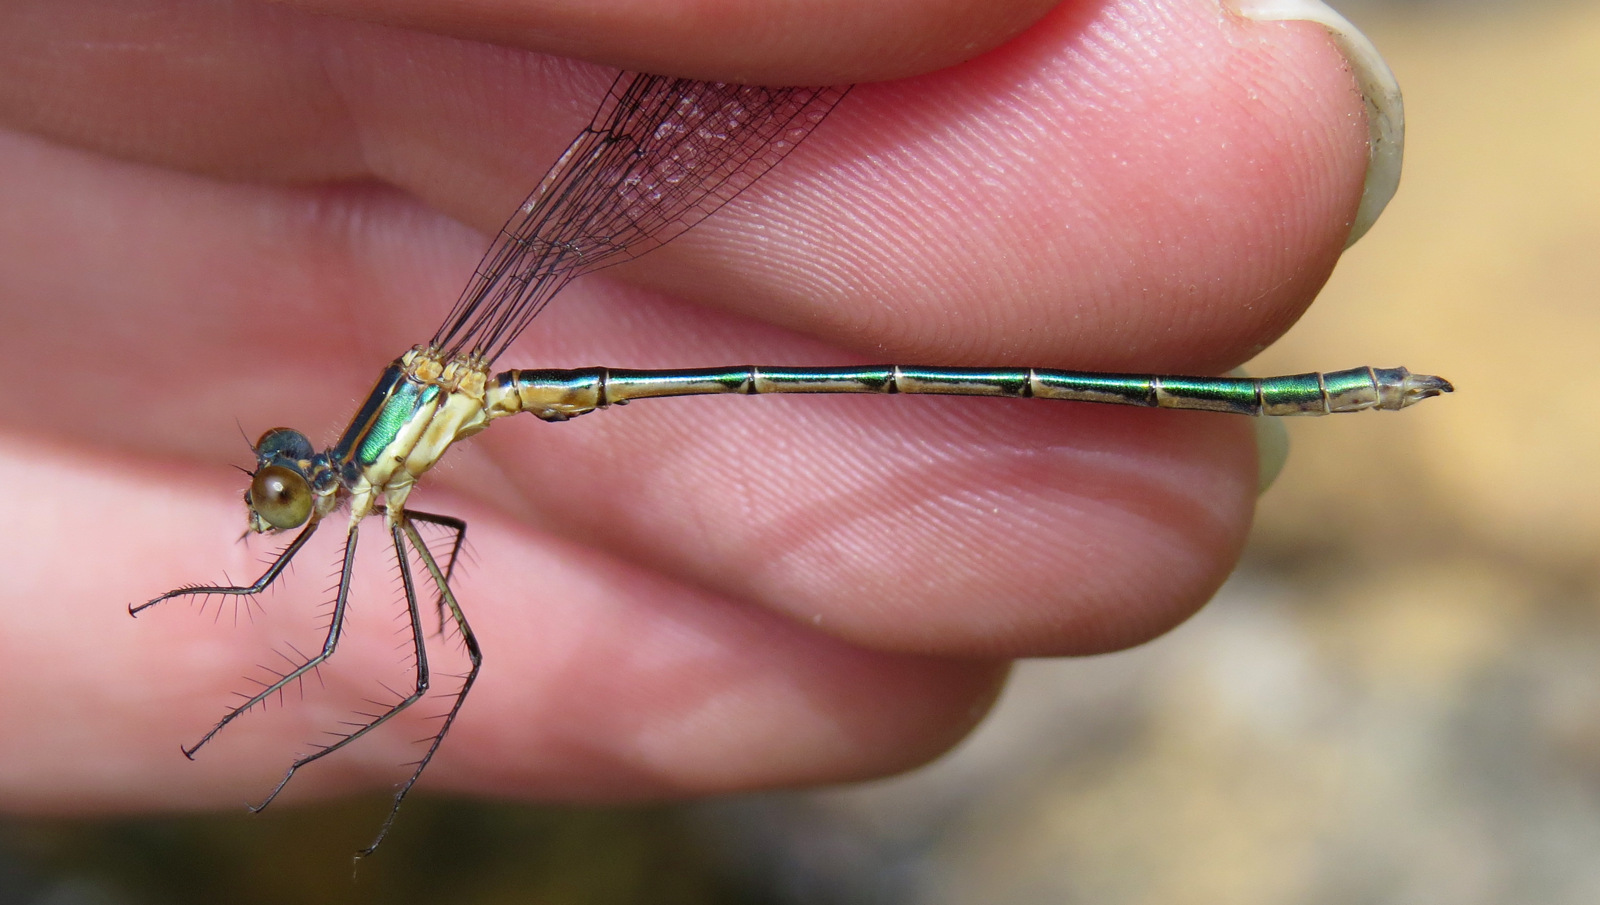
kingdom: Animalia
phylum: Arthropoda
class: Insecta
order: Odonata
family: Lestidae
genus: Lestes
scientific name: Lestes dryas
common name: Scarce emerald damselfly
